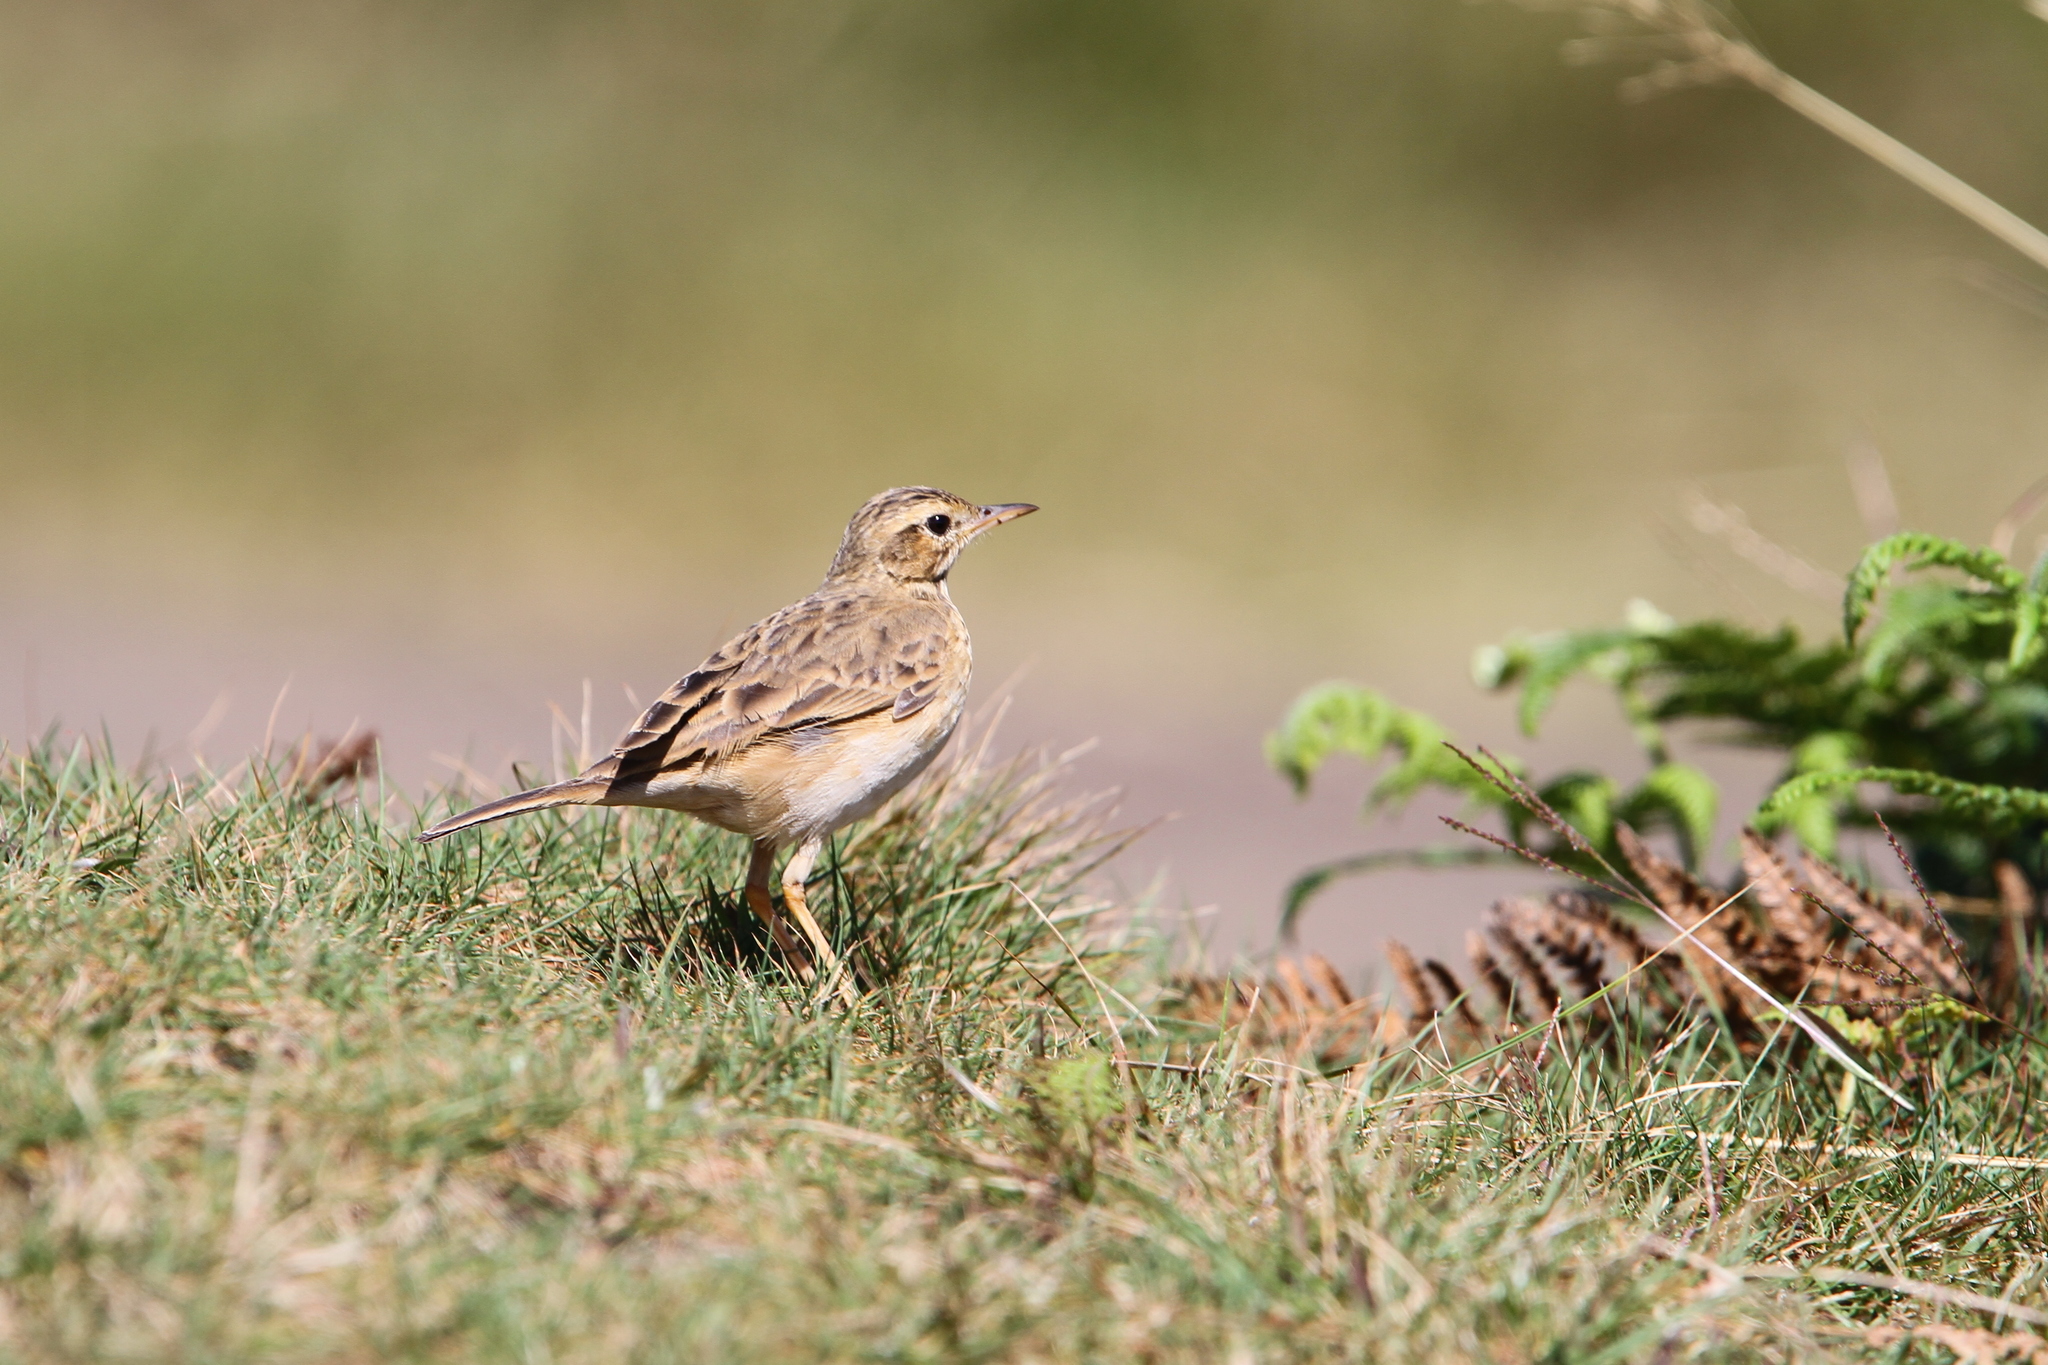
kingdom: Animalia
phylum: Chordata
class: Aves
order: Passeriformes
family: Motacillidae
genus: Anthus
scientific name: Anthus rufulus
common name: Paddyfield pipit
